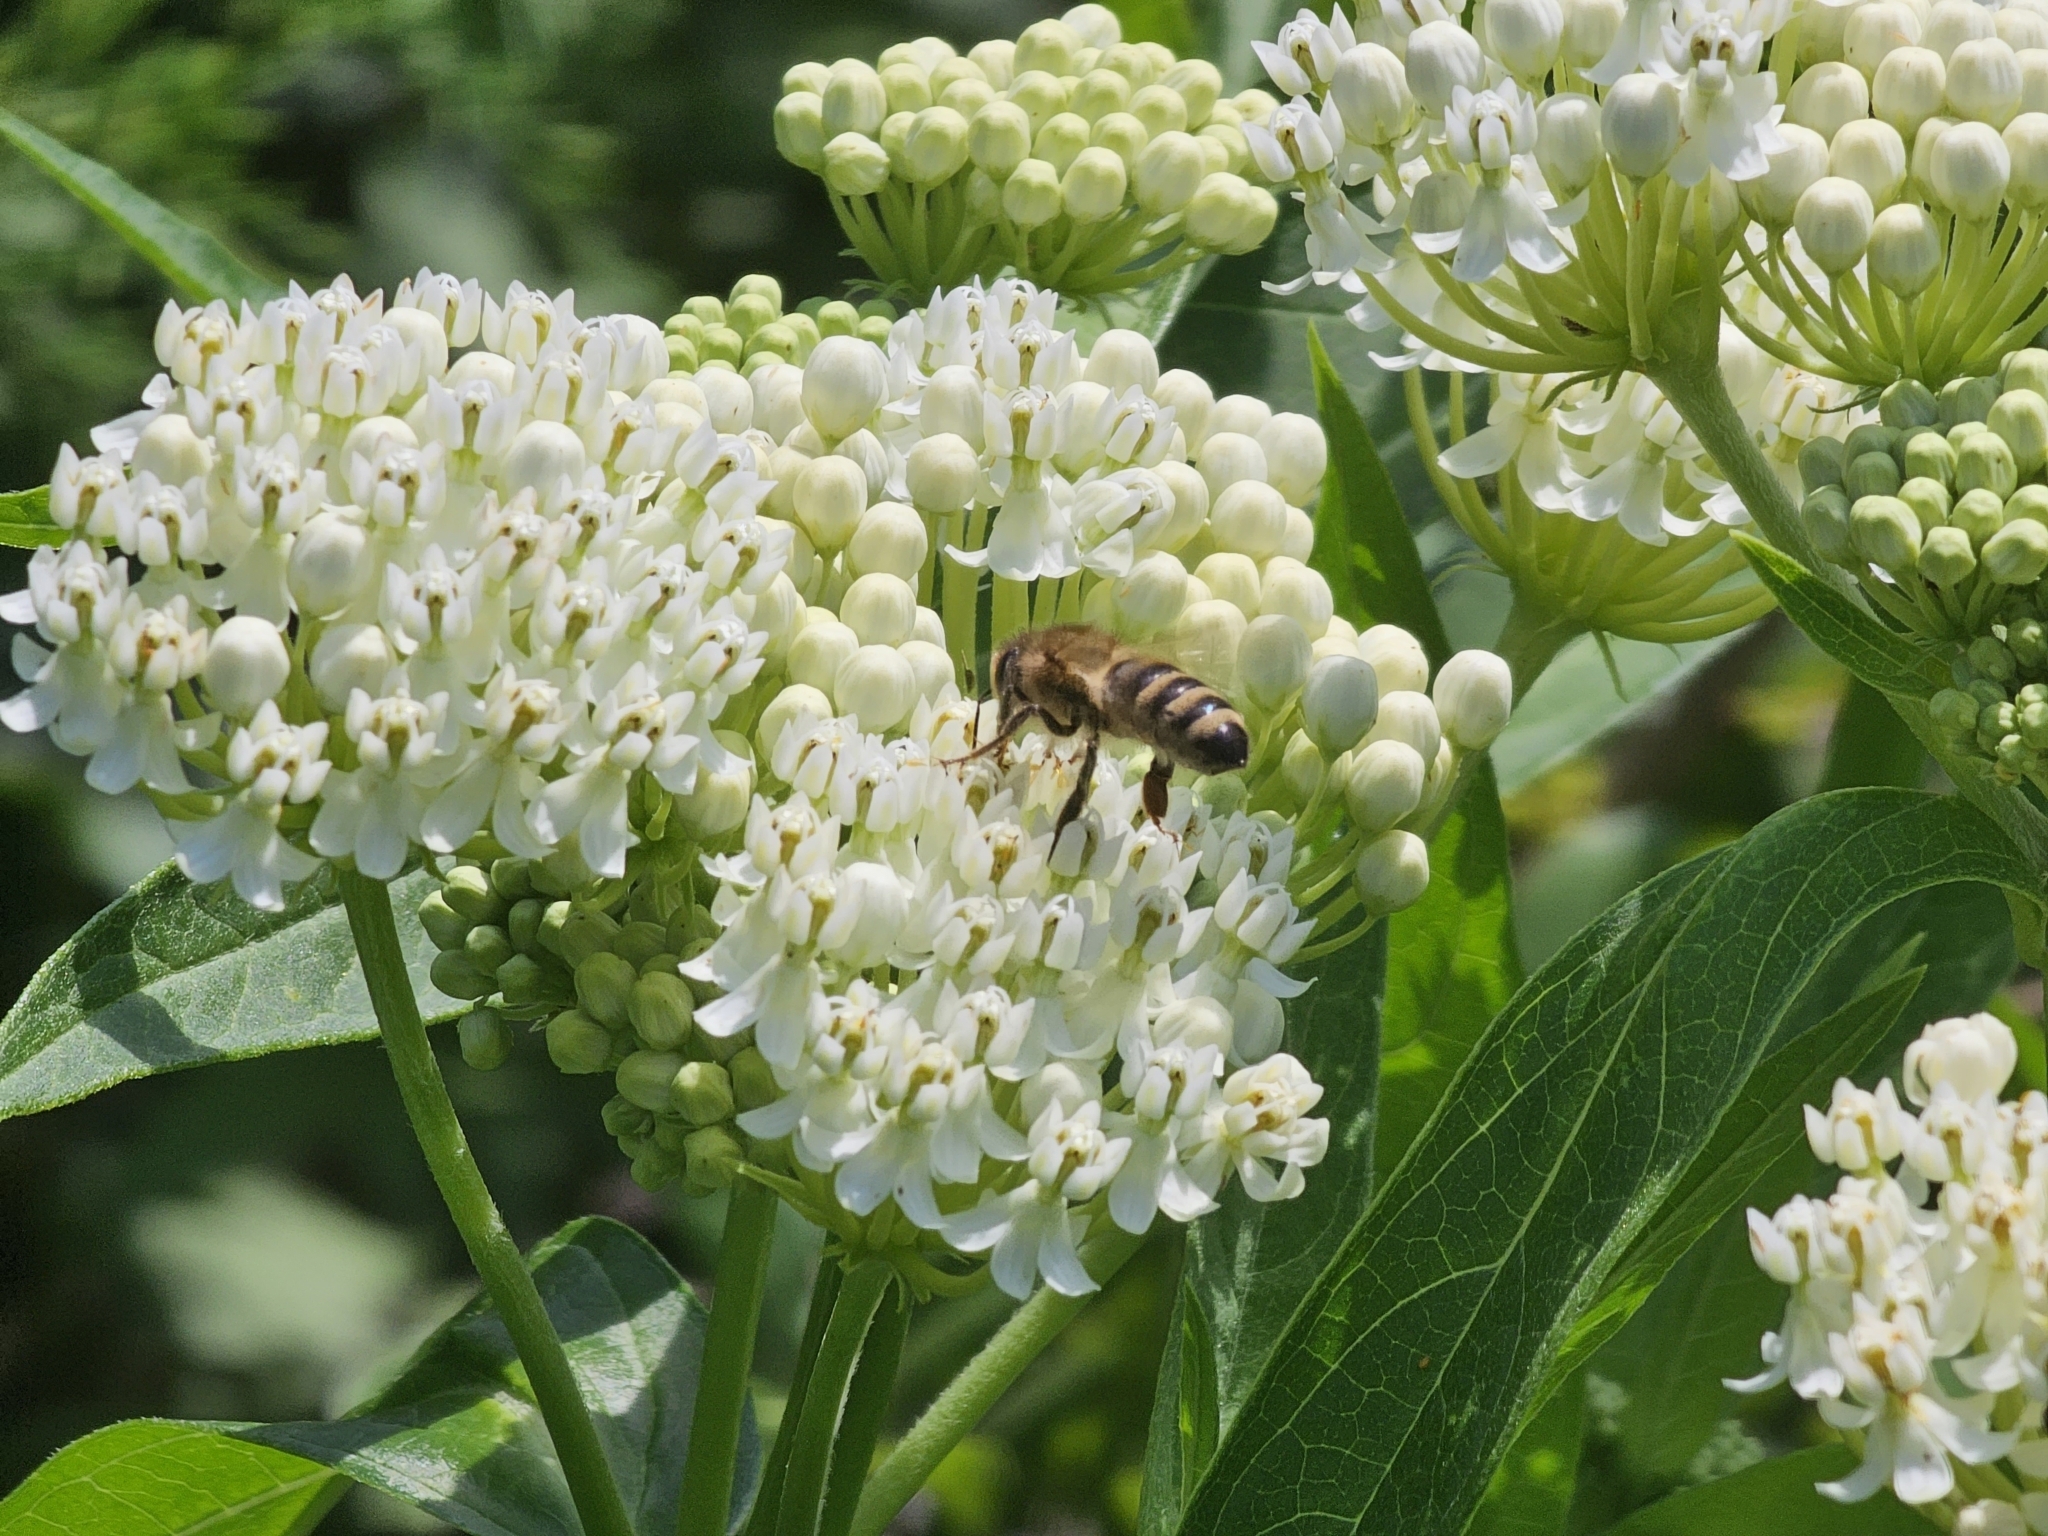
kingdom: Animalia
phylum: Arthropoda
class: Insecta
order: Hymenoptera
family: Apidae
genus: Apis
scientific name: Apis mellifera
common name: Honey bee
